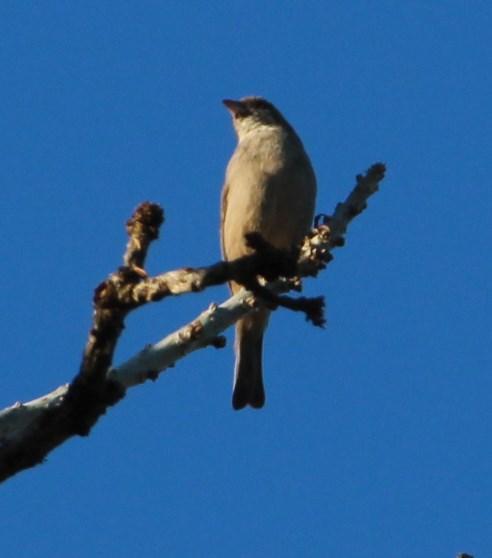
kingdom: Animalia
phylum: Chordata
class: Aves
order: Passeriformes
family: Pycnonotidae
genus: Andropadus
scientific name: Andropadus importunus
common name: Sombre greenbul
